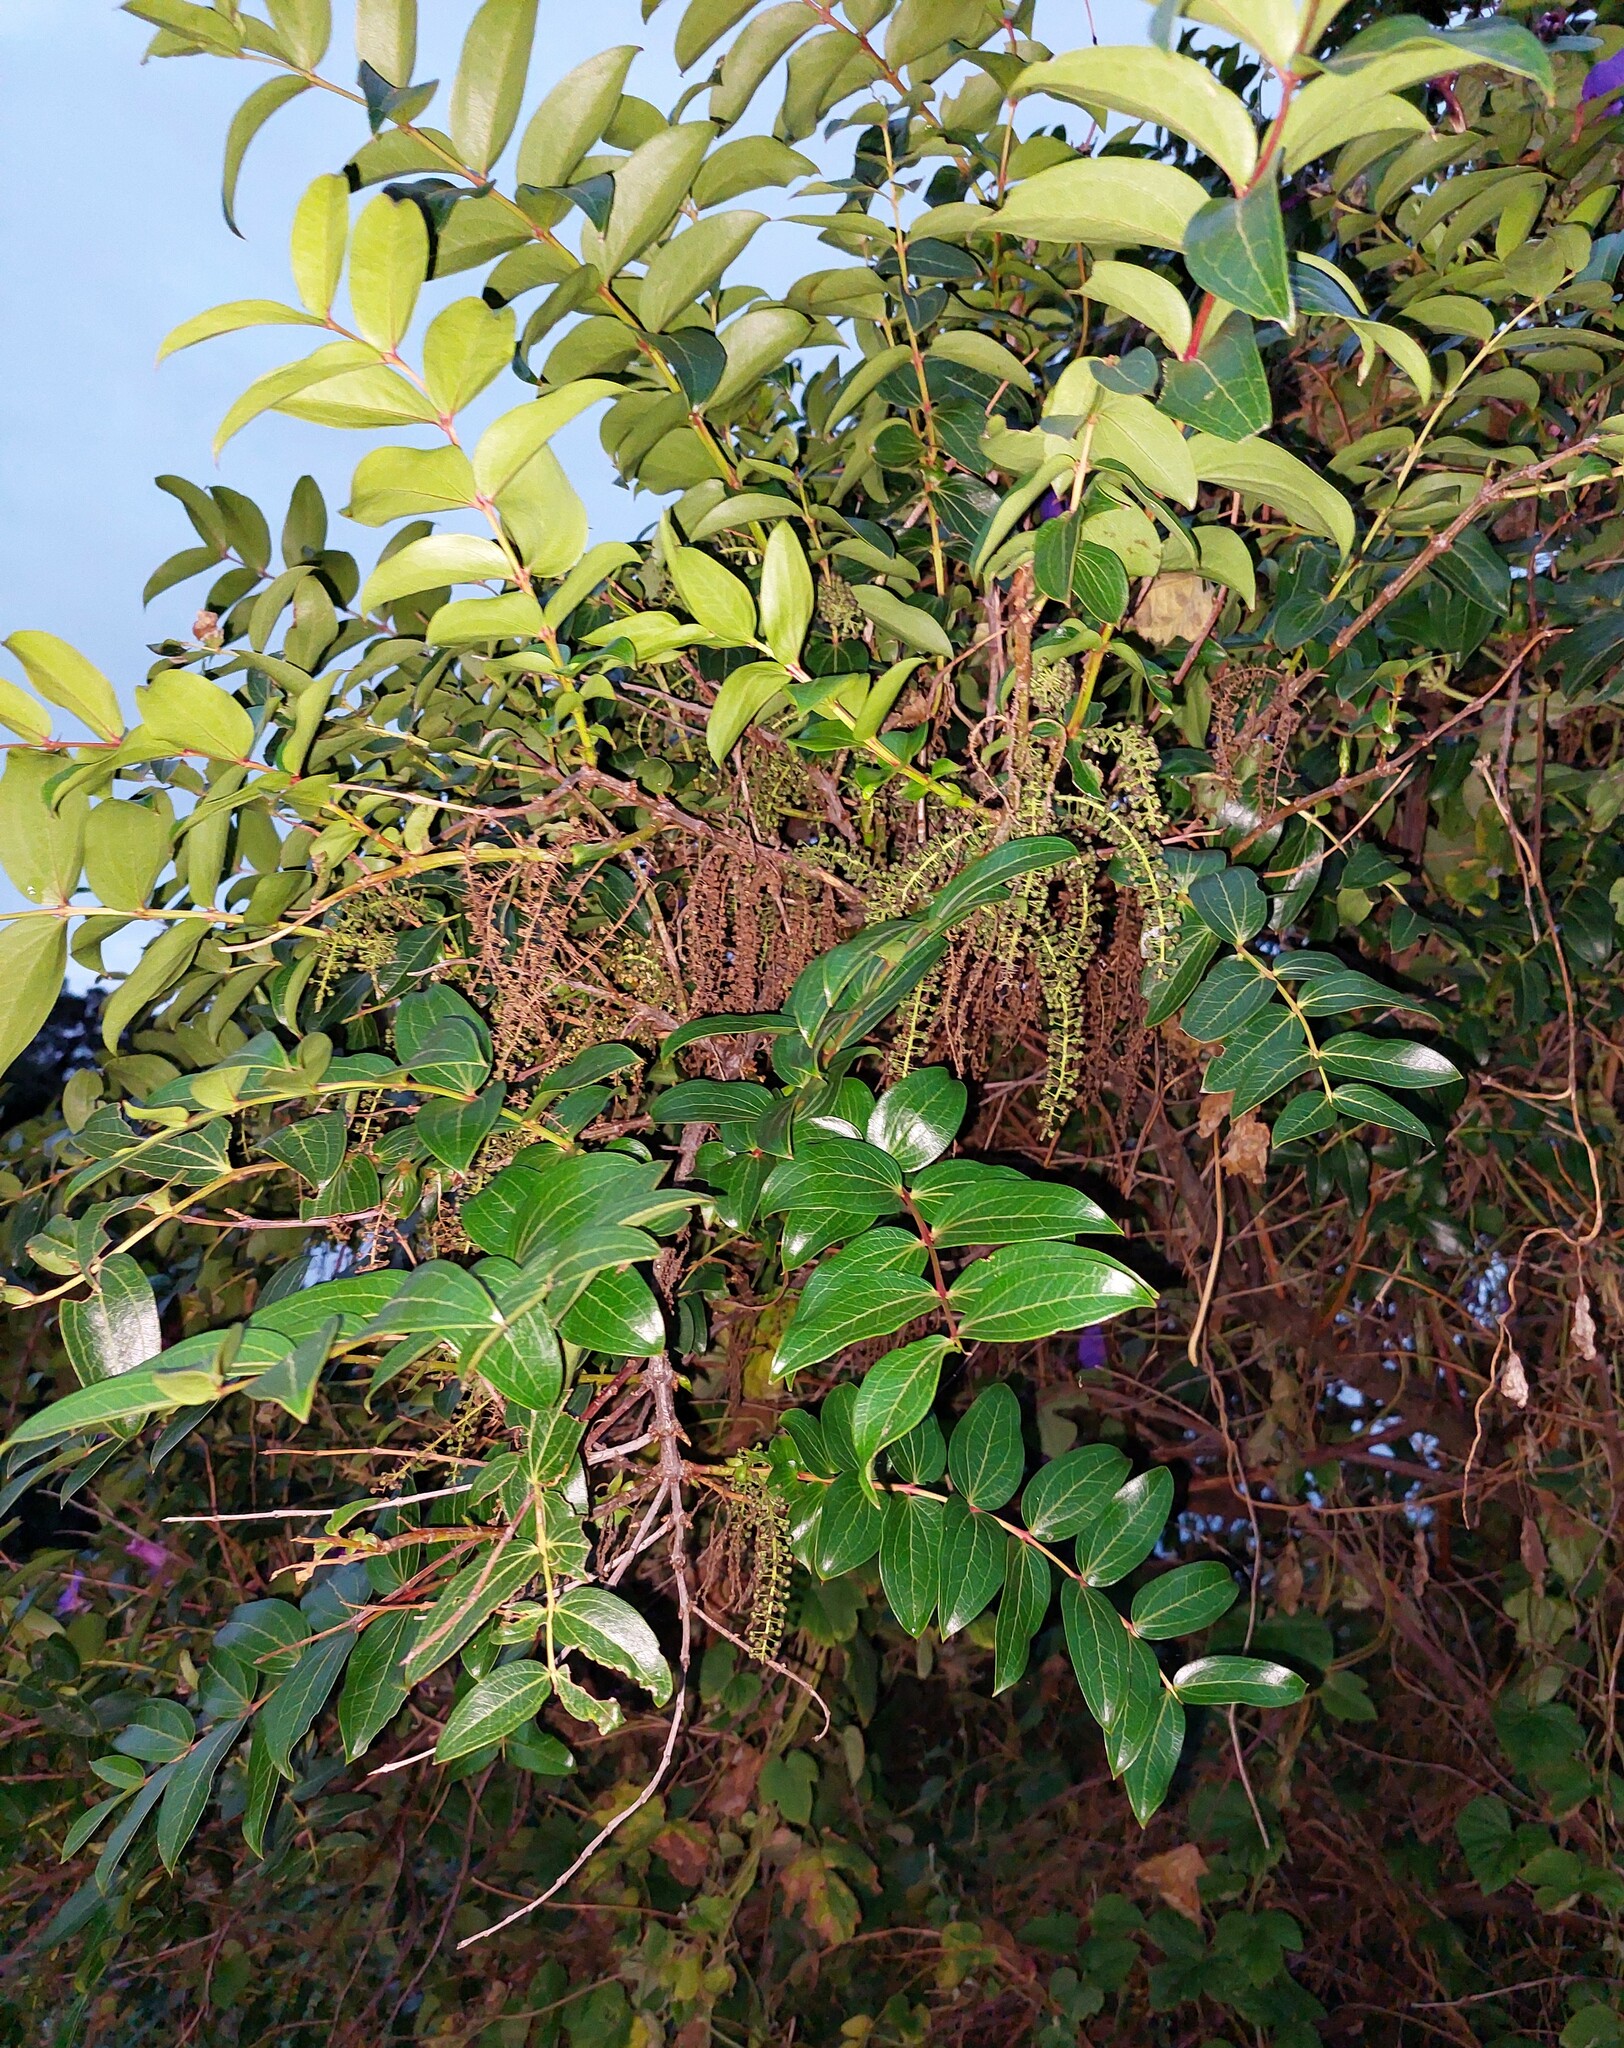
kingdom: Plantae
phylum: Tracheophyta
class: Magnoliopsida
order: Cucurbitales
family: Coriariaceae
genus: Coriaria
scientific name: Coriaria arborea
